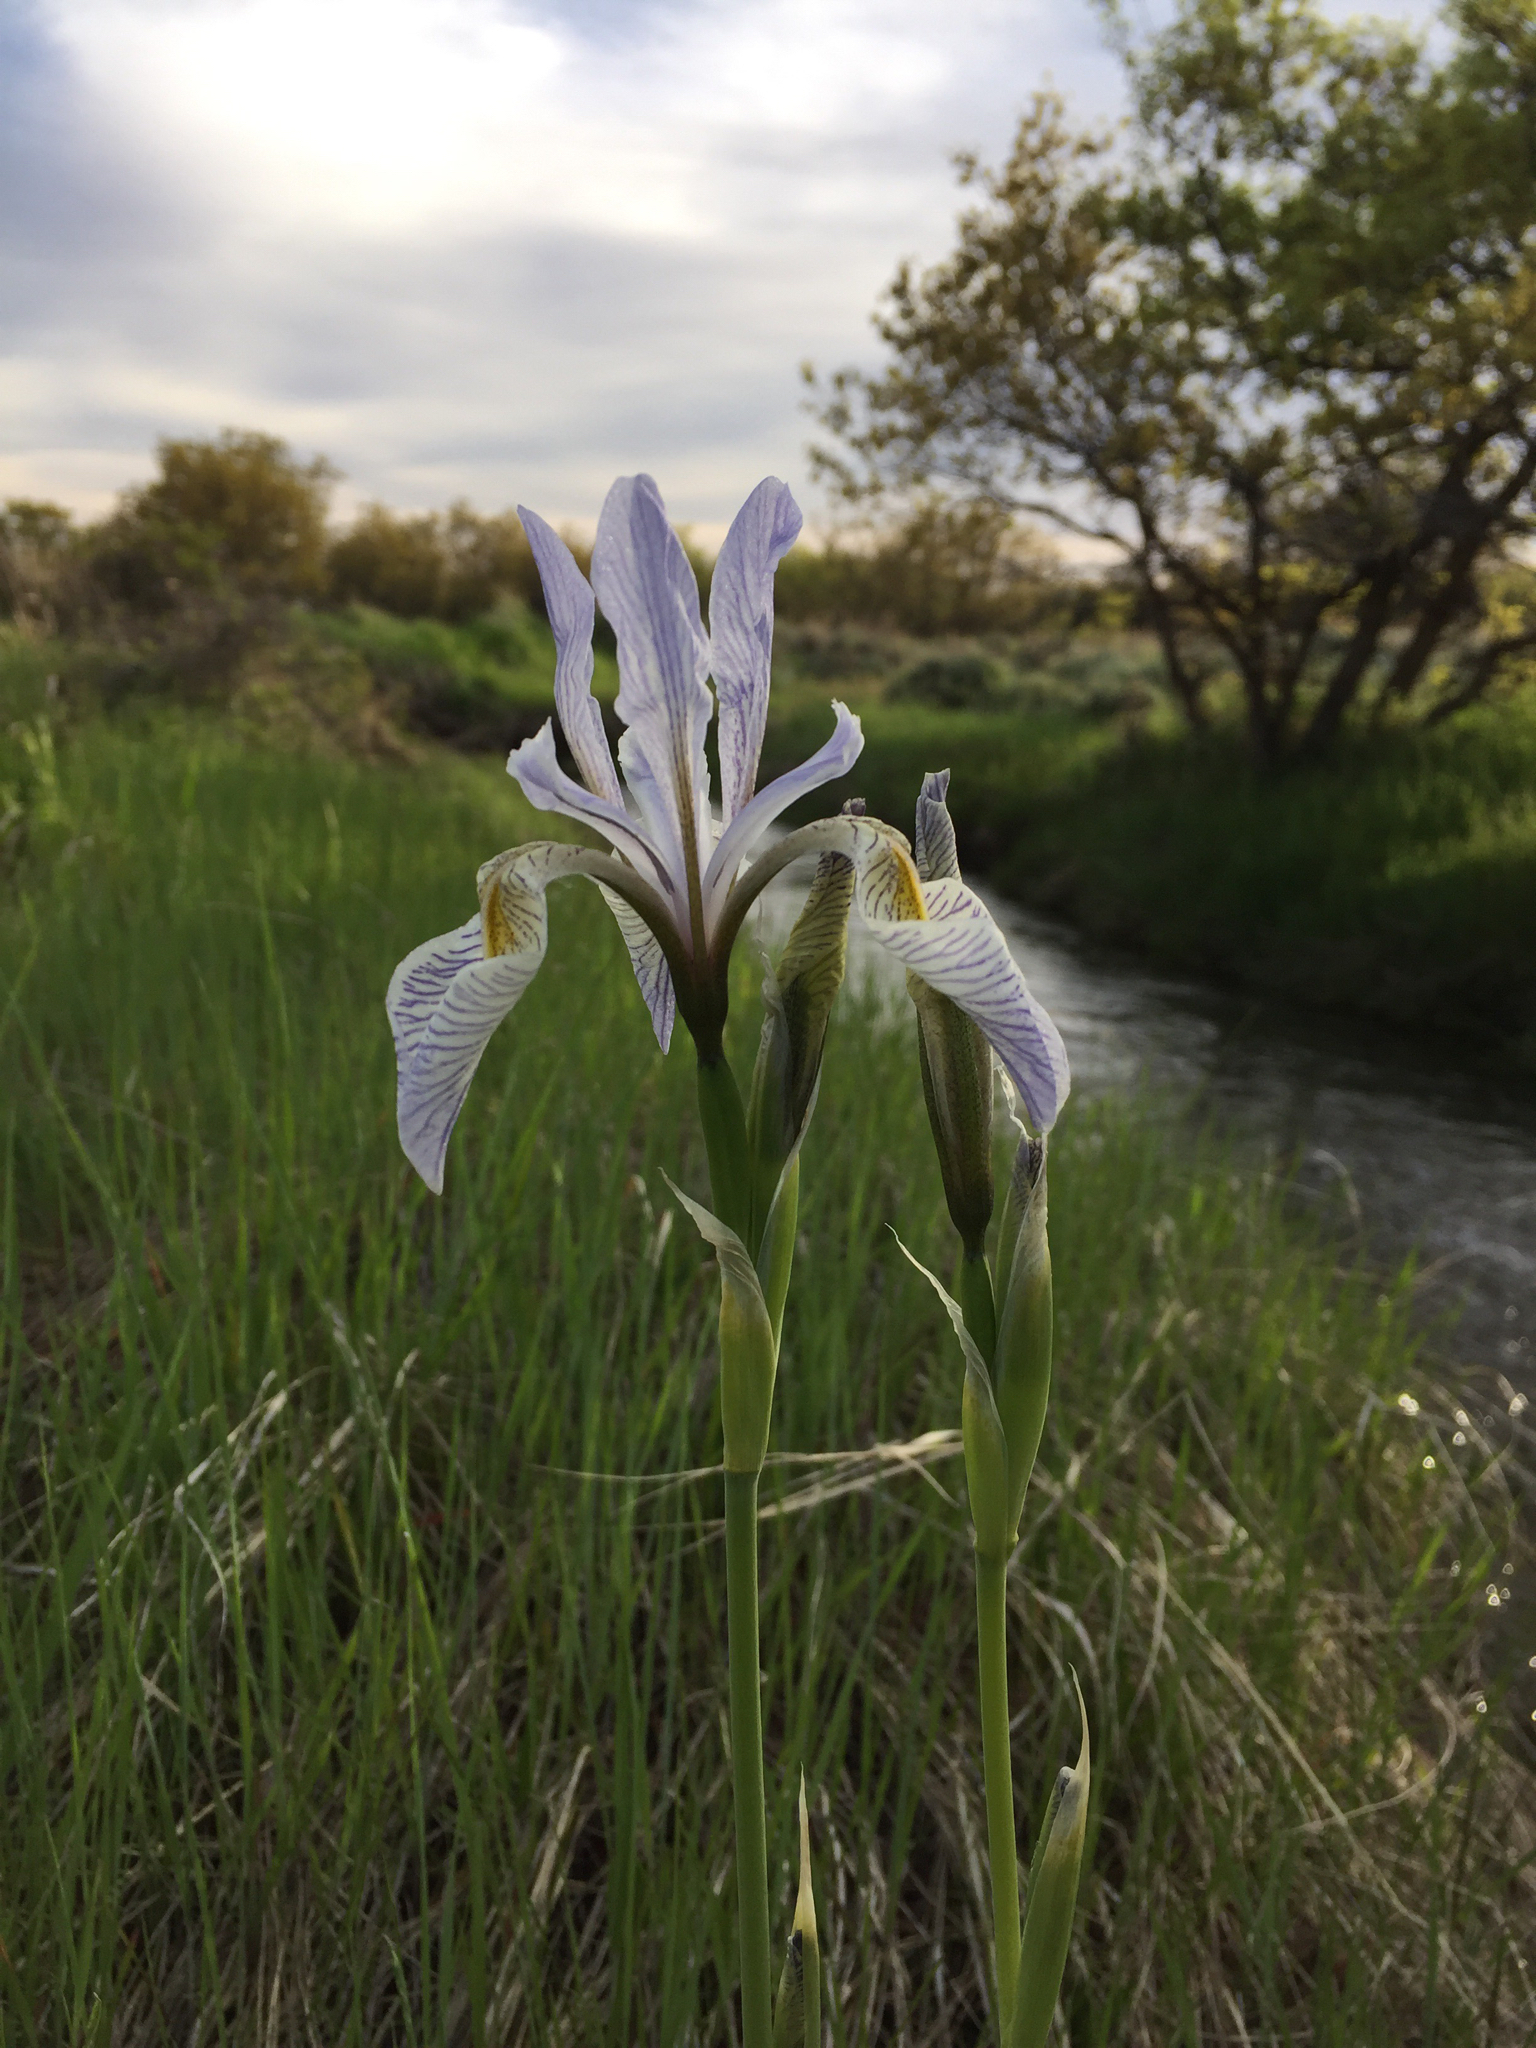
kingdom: Plantae
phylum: Tracheophyta
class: Liliopsida
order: Asparagales
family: Iridaceae
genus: Iris
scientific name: Iris missouriensis
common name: Rocky mountain iris
